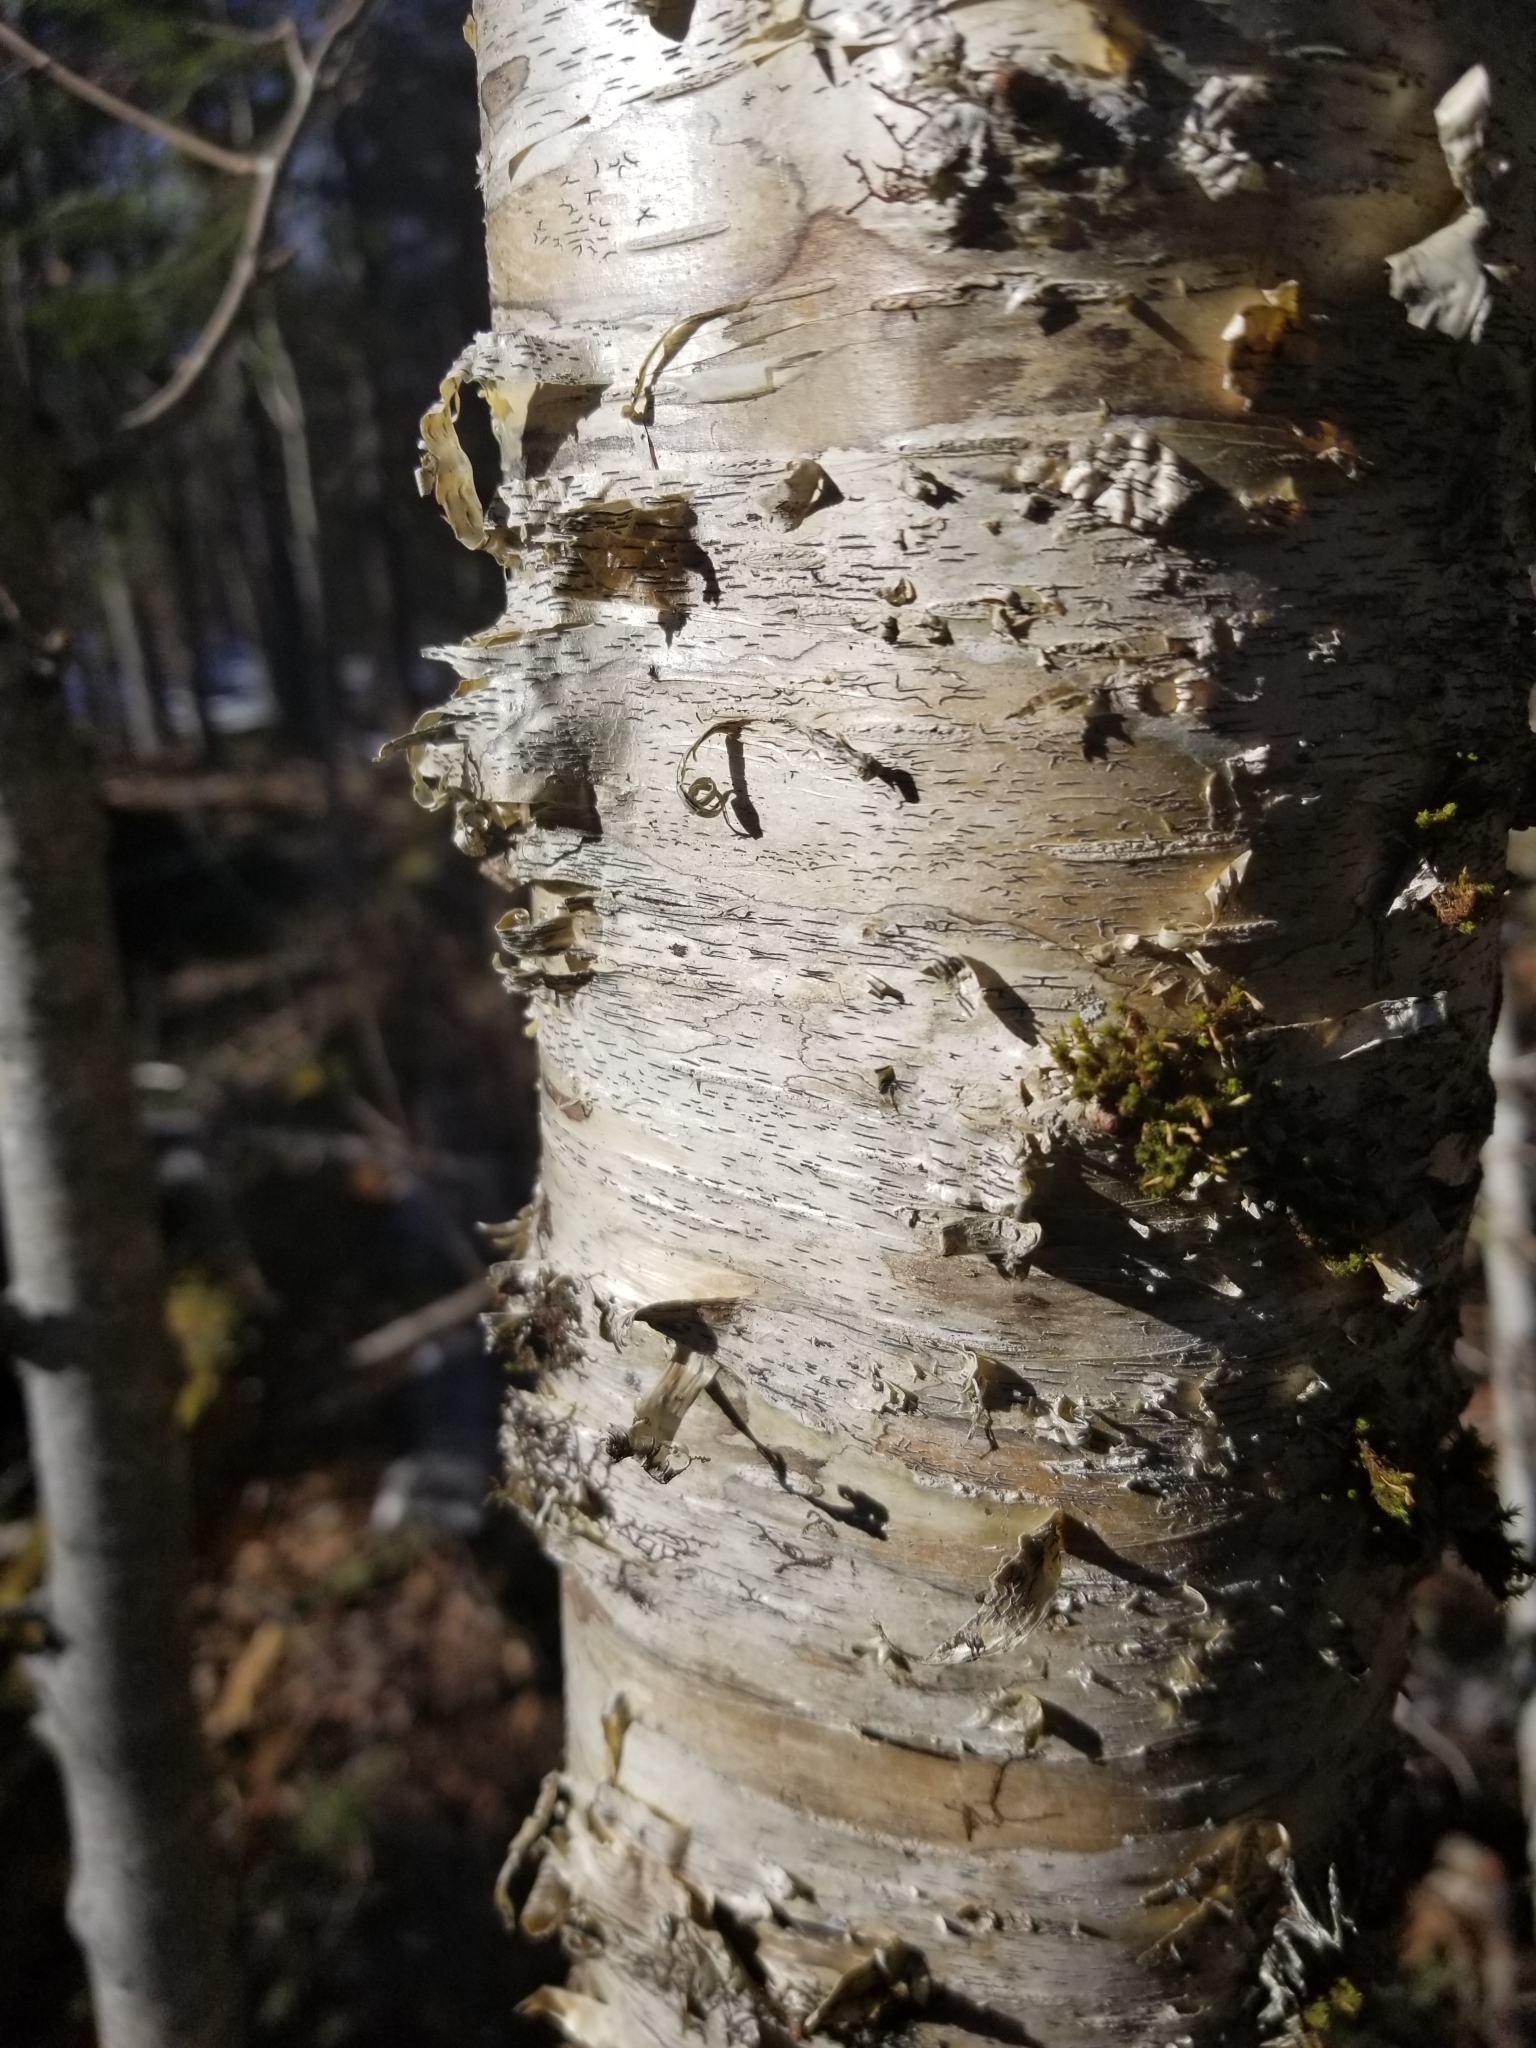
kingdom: Fungi
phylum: Ascomycota
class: Lecanoromycetes
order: Ostropales
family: Graphidaceae
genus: Graphis
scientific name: Graphis scripta
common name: Script lichen
